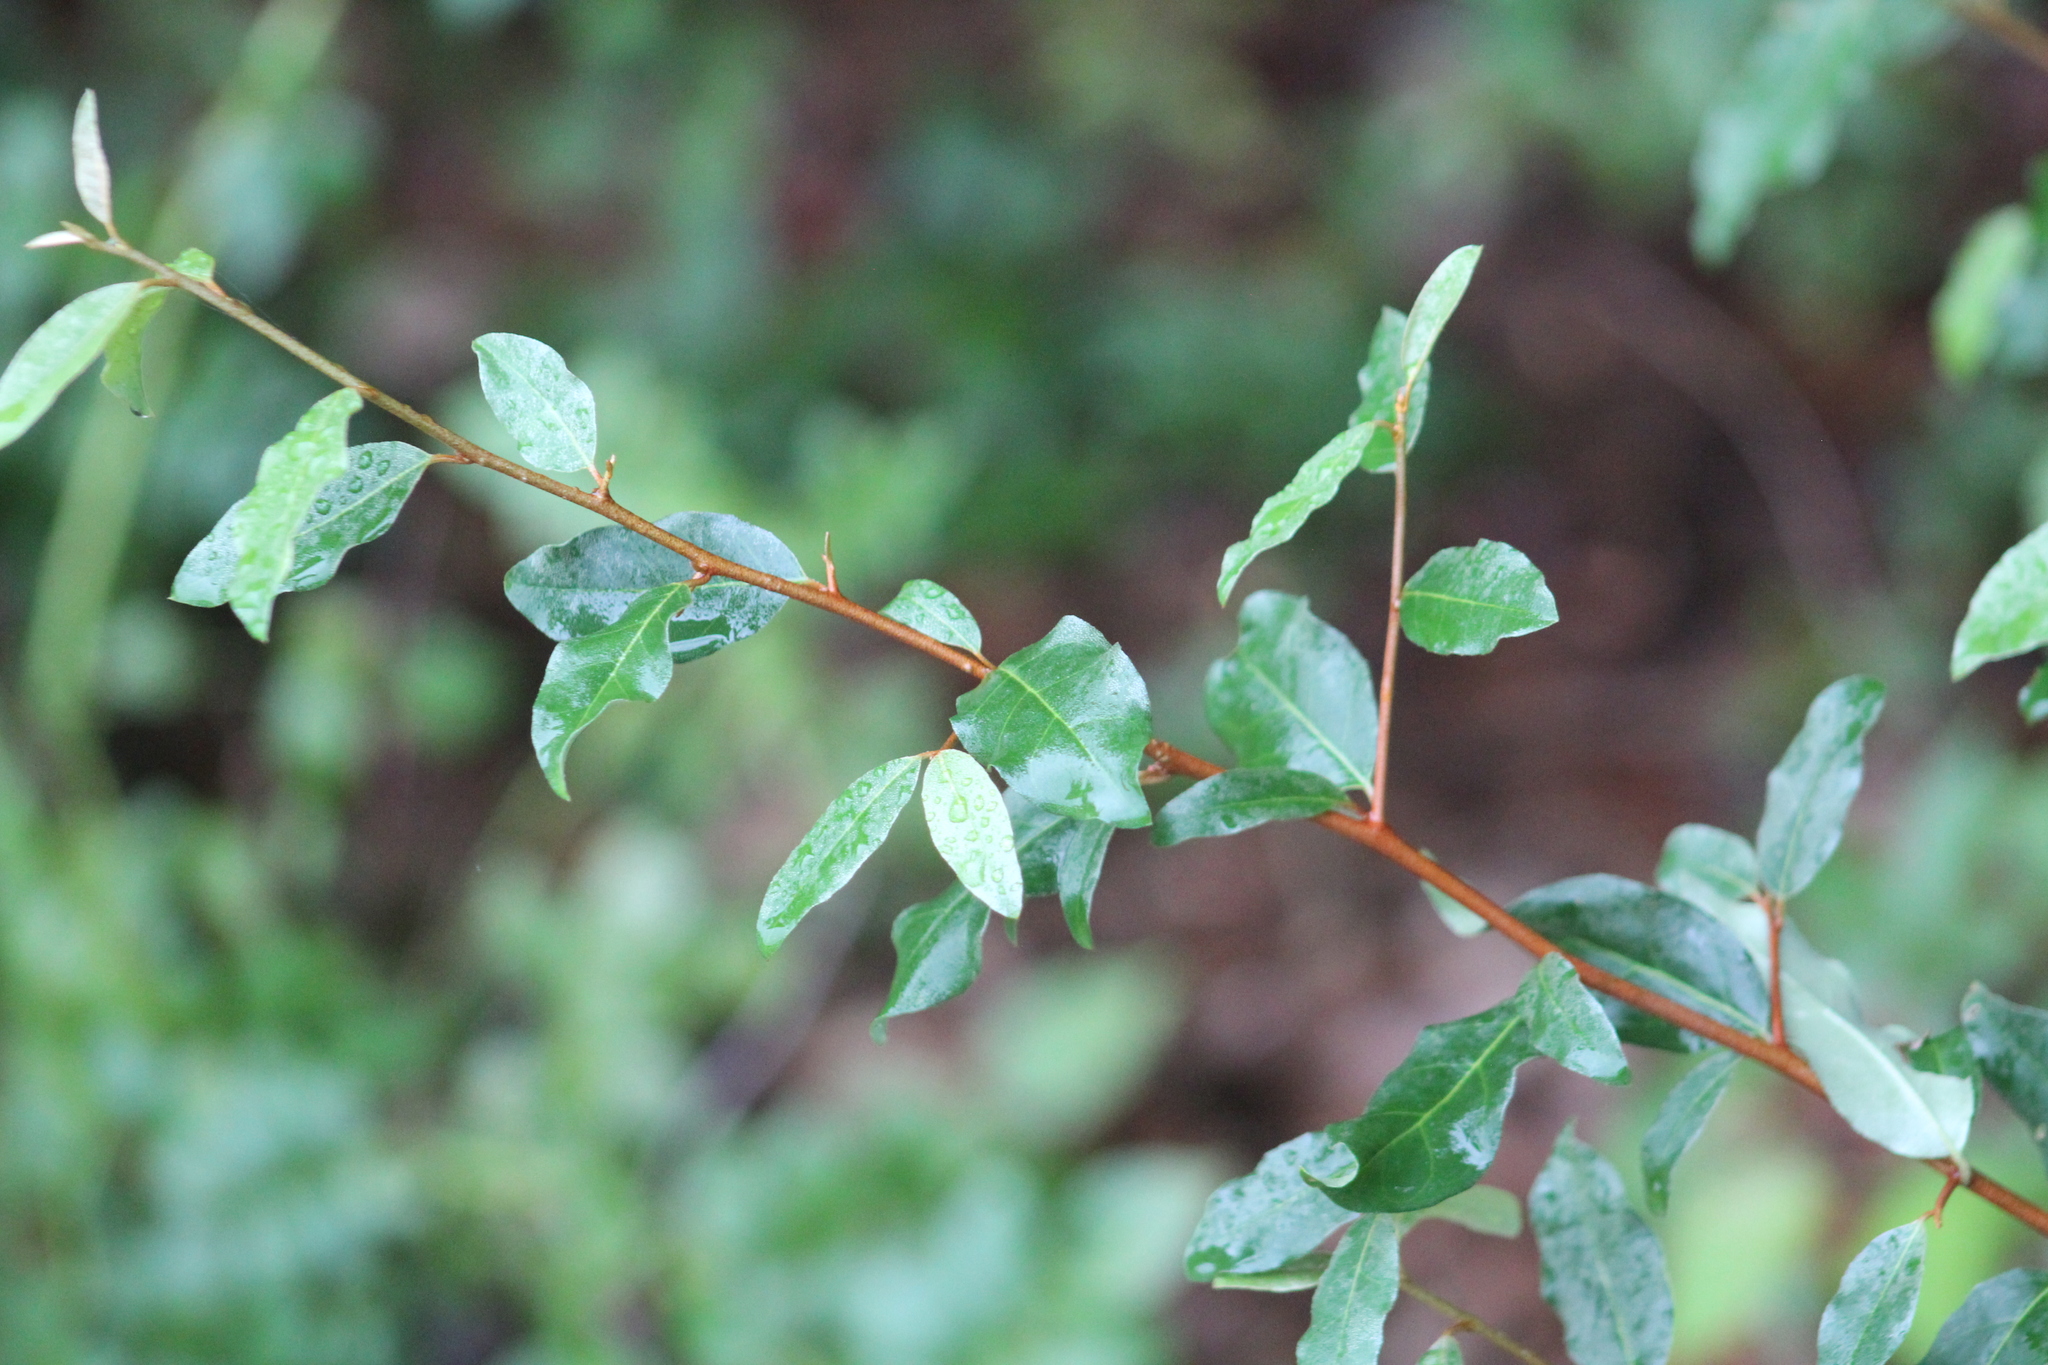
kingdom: Plantae
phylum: Tracheophyta
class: Magnoliopsida
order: Rosales
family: Elaeagnaceae
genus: Elaeagnus
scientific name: Elaeagnus umbellata
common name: Autumn olive
